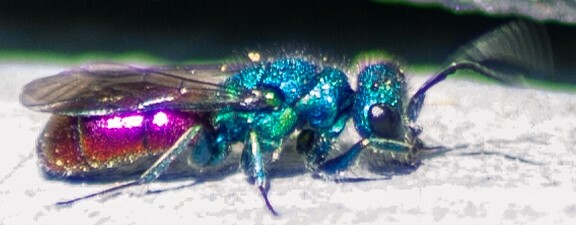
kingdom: Animalia
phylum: Arthropoda
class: Insecta
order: Hymenoptera
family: Chrysididae
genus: Chrysura
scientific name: Chrysura radians
